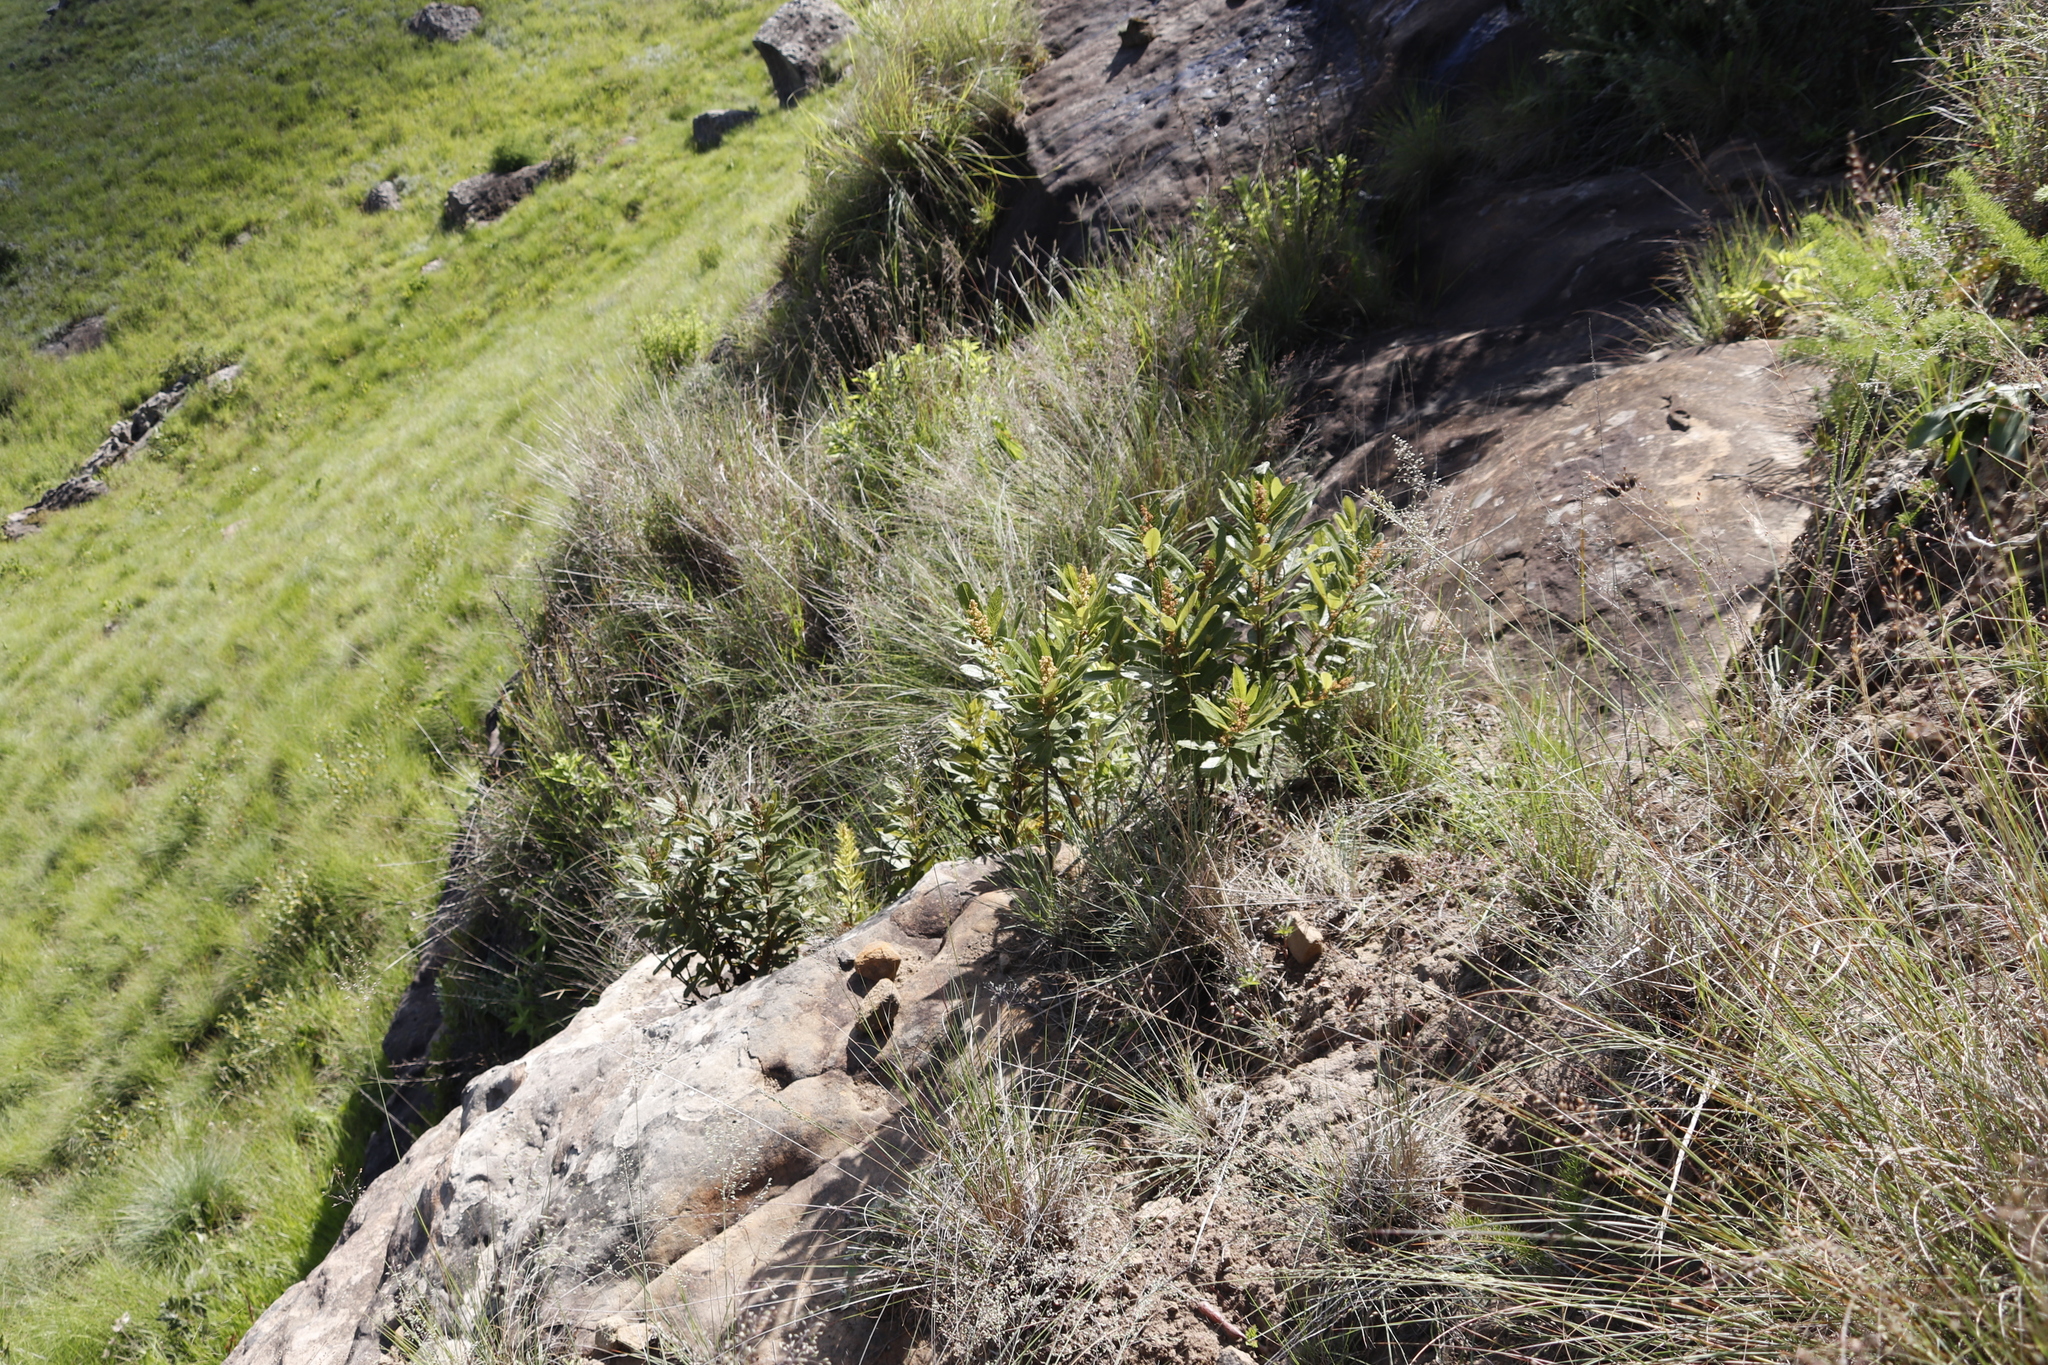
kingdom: Plantae
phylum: Tracheophyta
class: Magnoliopsida
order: Sapindales
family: Anacardiaceae
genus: Searsia
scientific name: Searsia discolor
